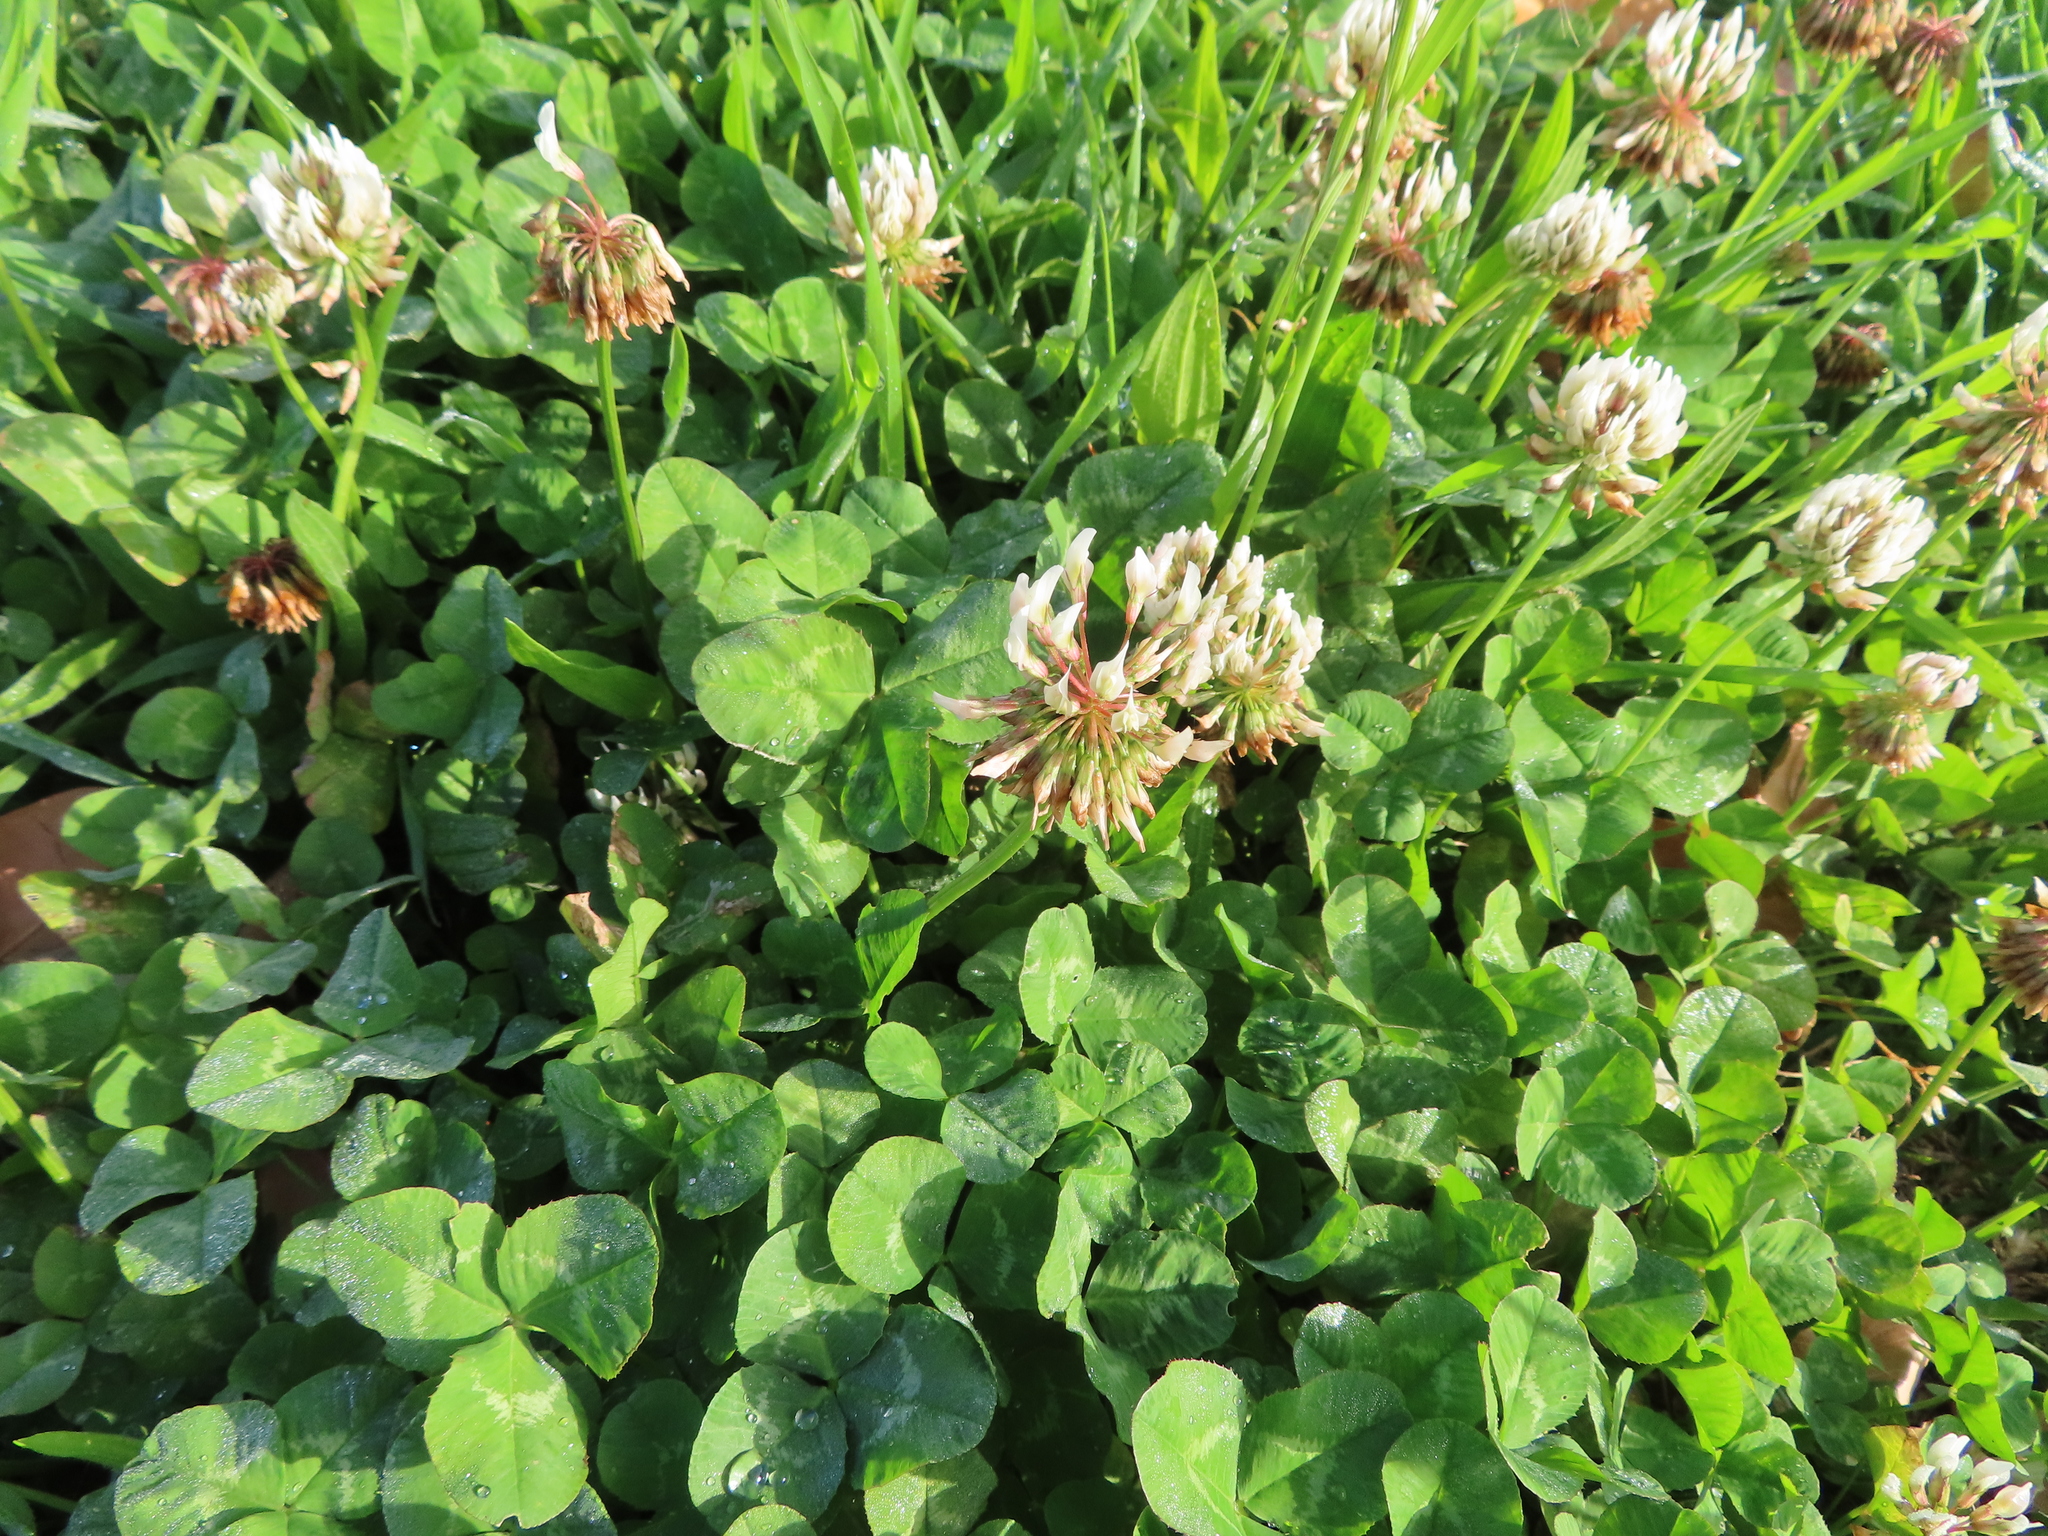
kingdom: Plantae
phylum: Tracheophyta
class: Magnoliopsida
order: Fabales
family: Fabaceae
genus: Trifolium
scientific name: Trifolium repens
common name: White clover
